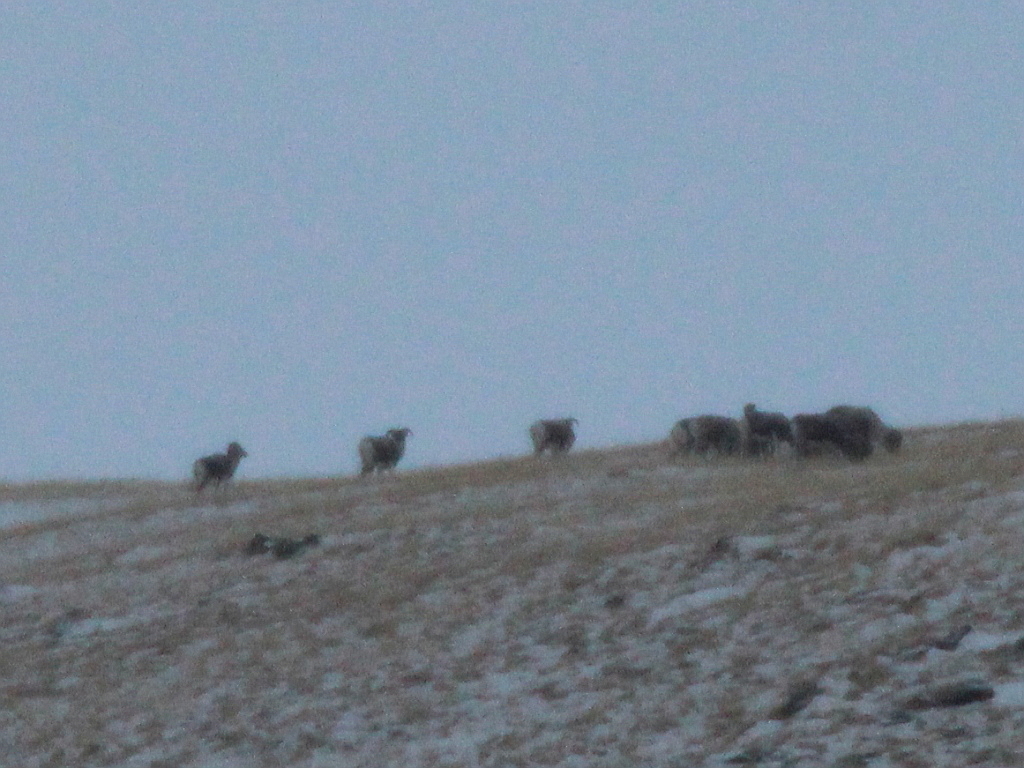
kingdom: Animalia
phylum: Chordata
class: Mammalia
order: Artiodactyla
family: Bovidae
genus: Ovis
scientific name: Ovis ammon
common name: Argali
